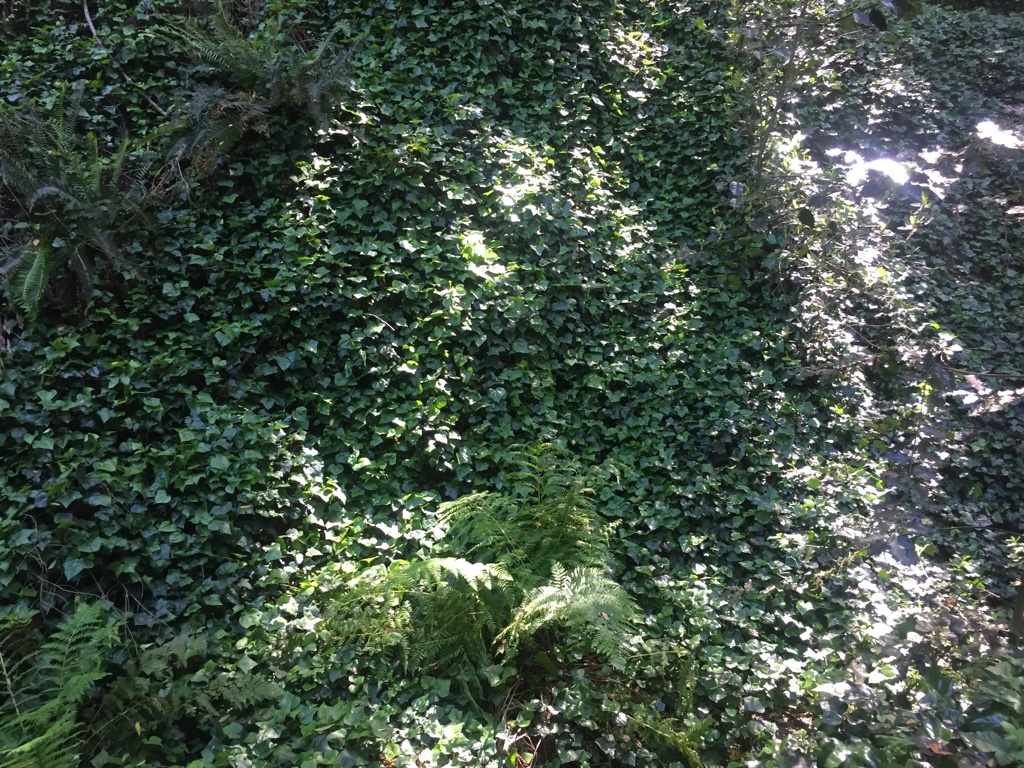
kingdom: Plantae
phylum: Tracheophyta
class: Magnoliopsida
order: Apiales
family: Araliaceae
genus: Hedera
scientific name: Hedera helix
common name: Ivy
